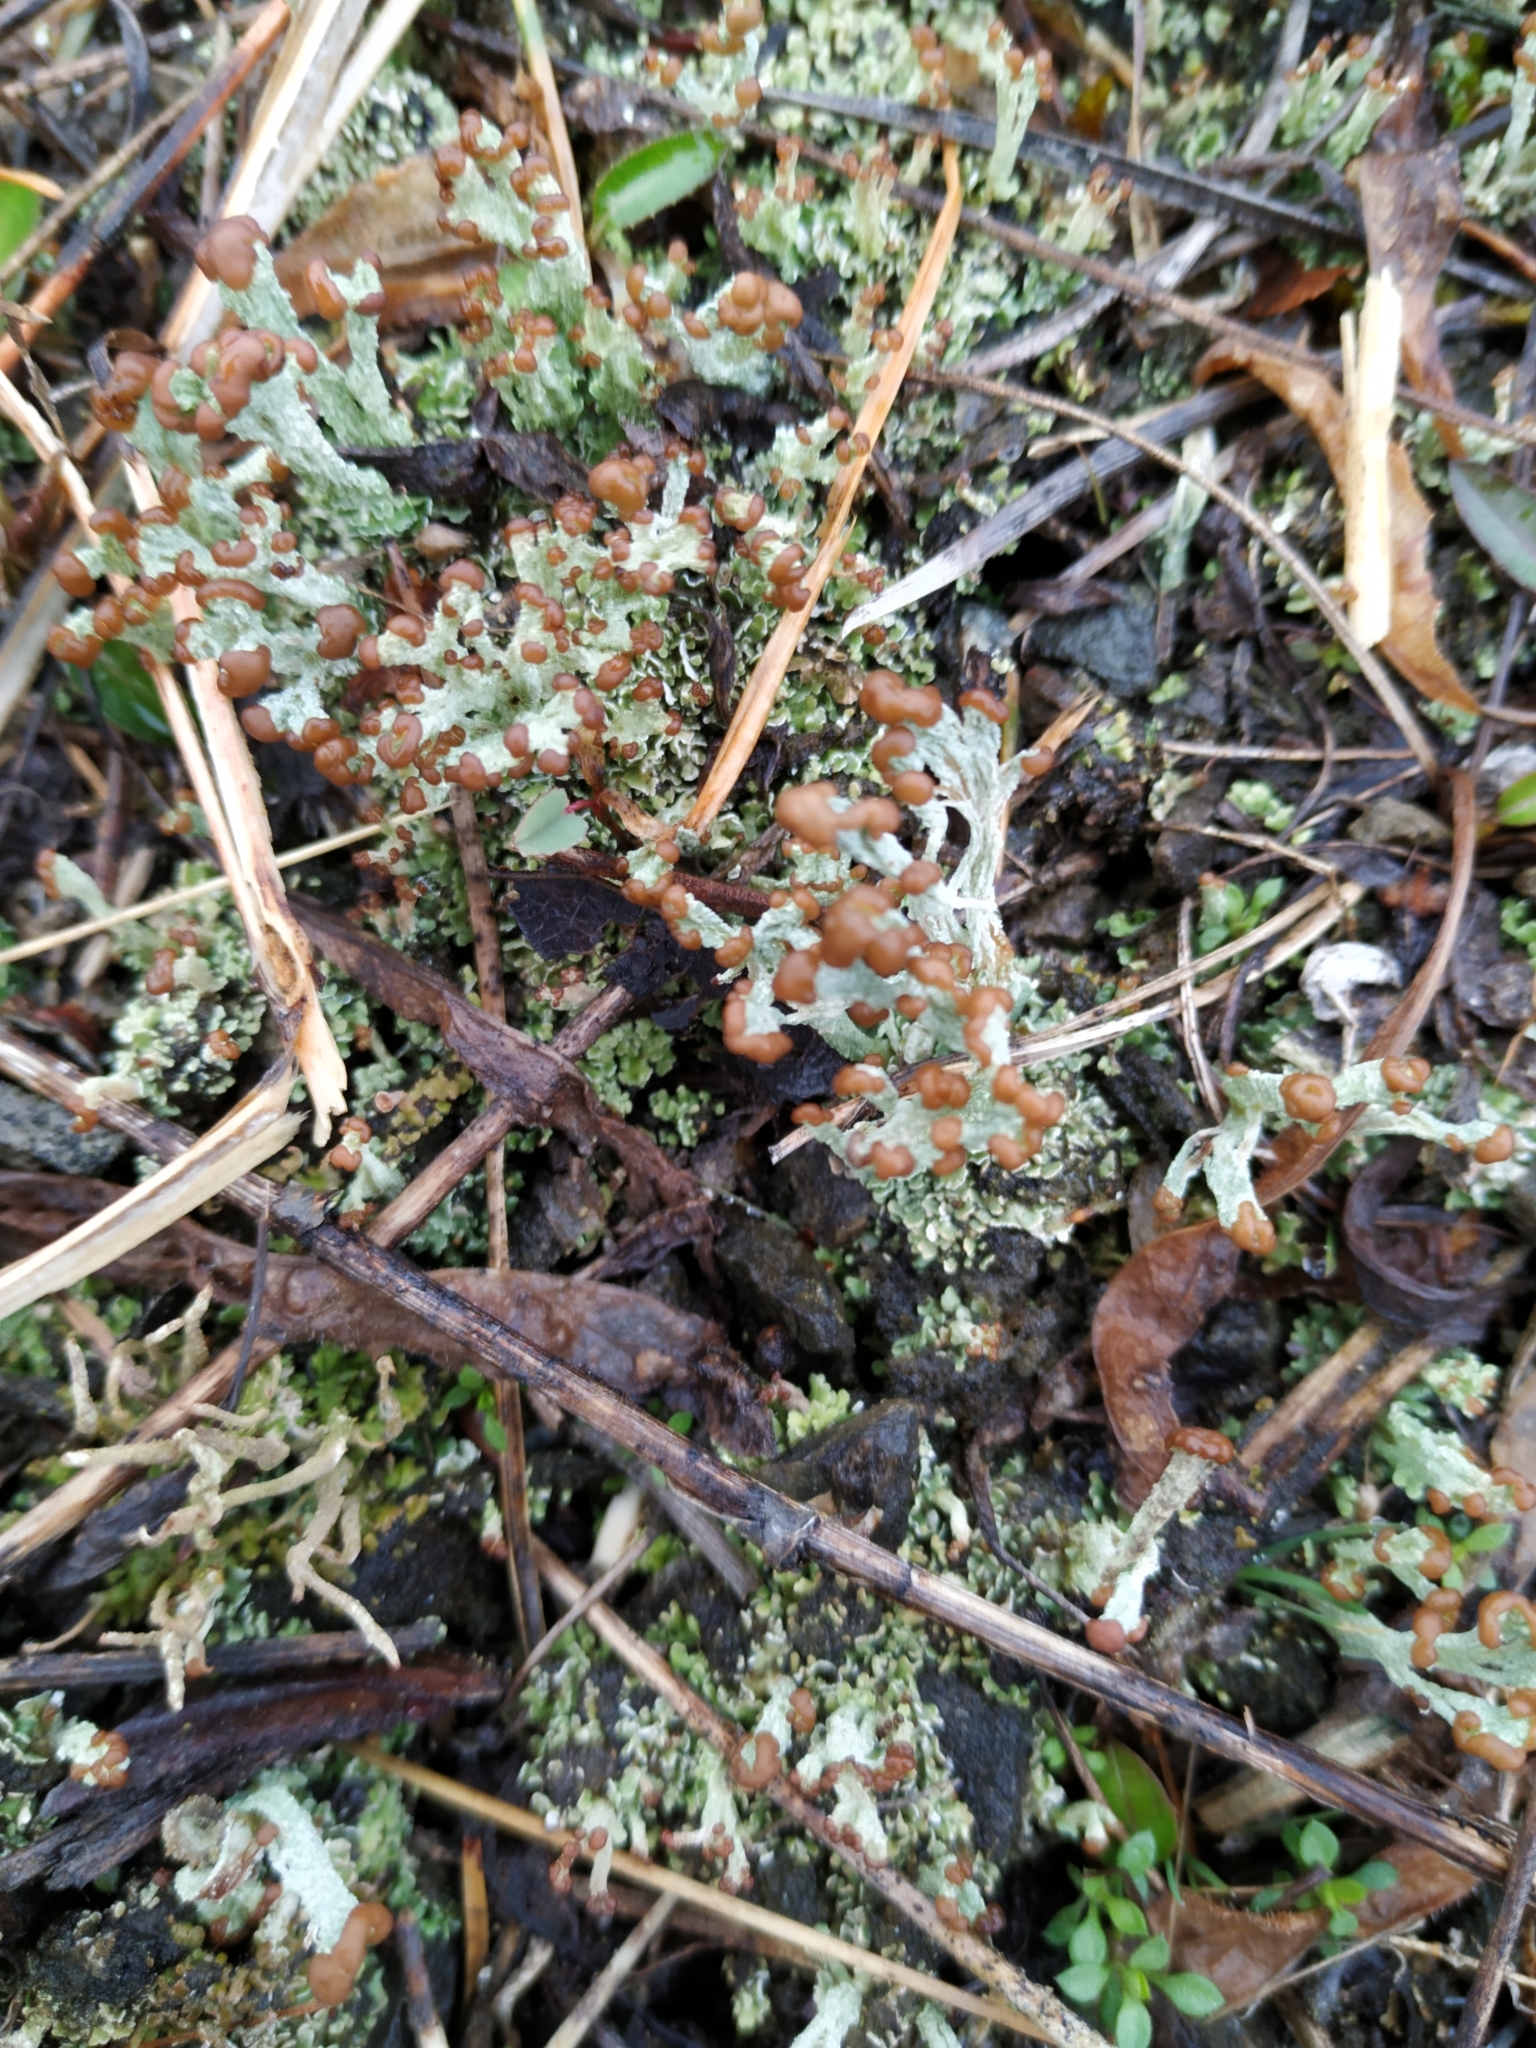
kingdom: Fungi
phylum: Ascomycota
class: Lecanoromycetes
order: Lecanorales
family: Cladoniaceae
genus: Cladonia
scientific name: Cladonia cariosa
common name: Split-peg lichen
